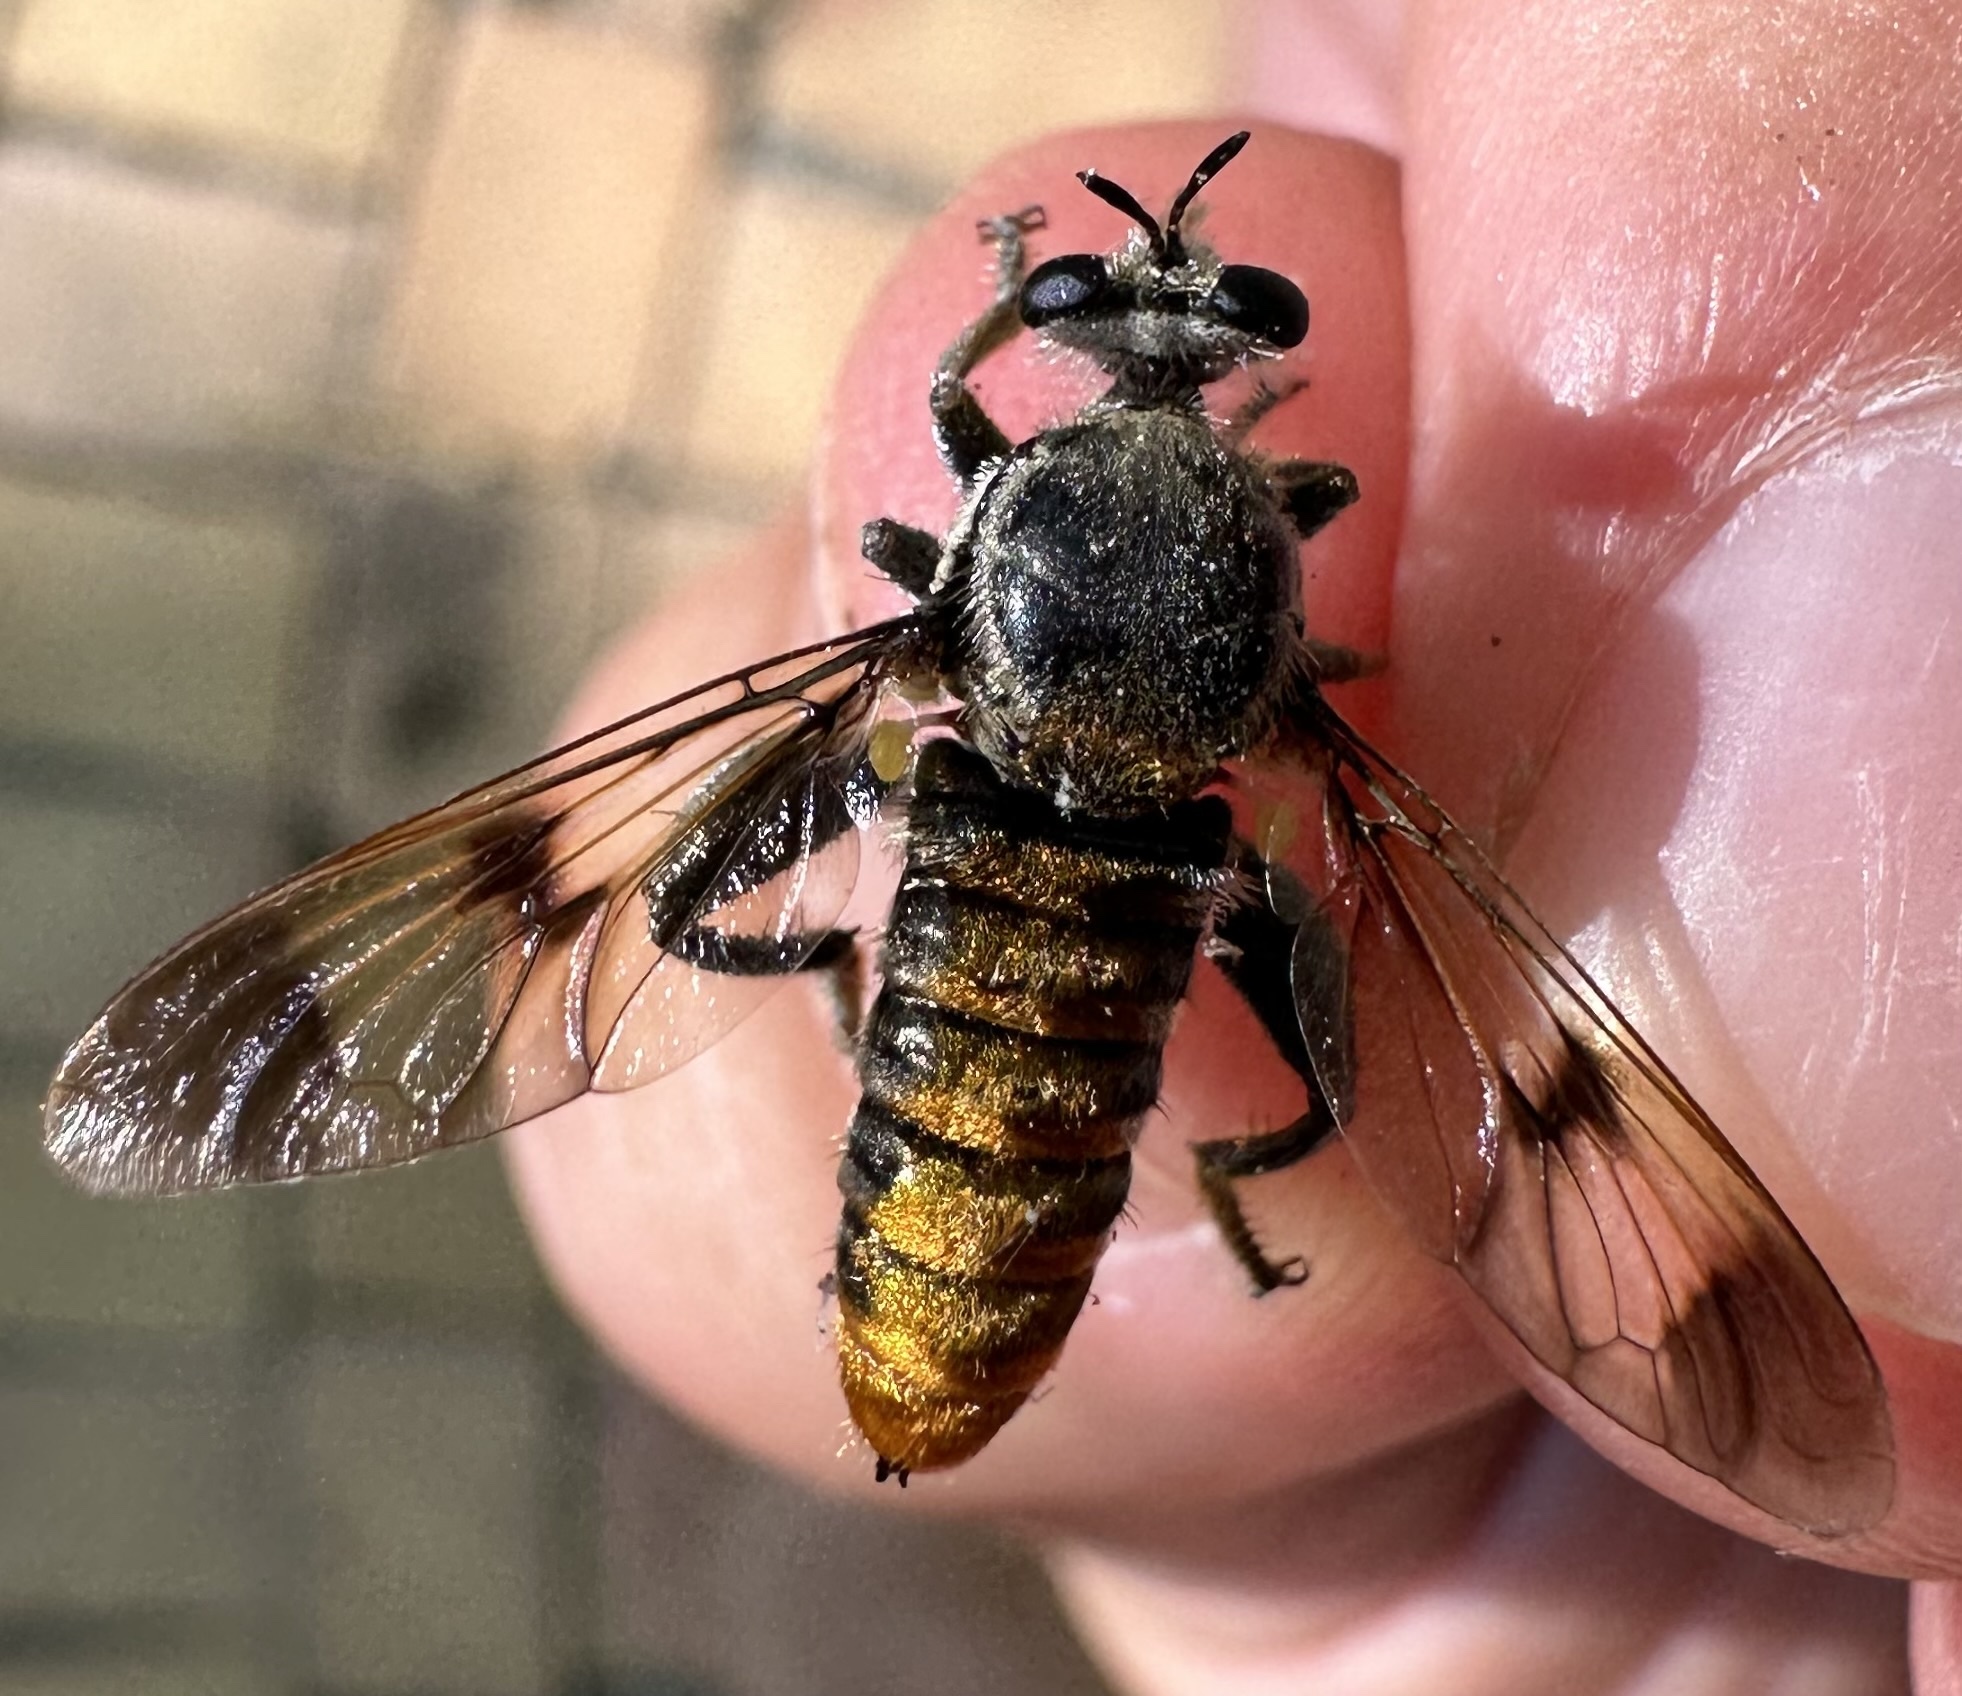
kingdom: Animalia
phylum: Arthropoda
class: Insecta
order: Diptera
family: Asilidae
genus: Hoplistomerus
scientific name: Hoplistomerus nobilis
